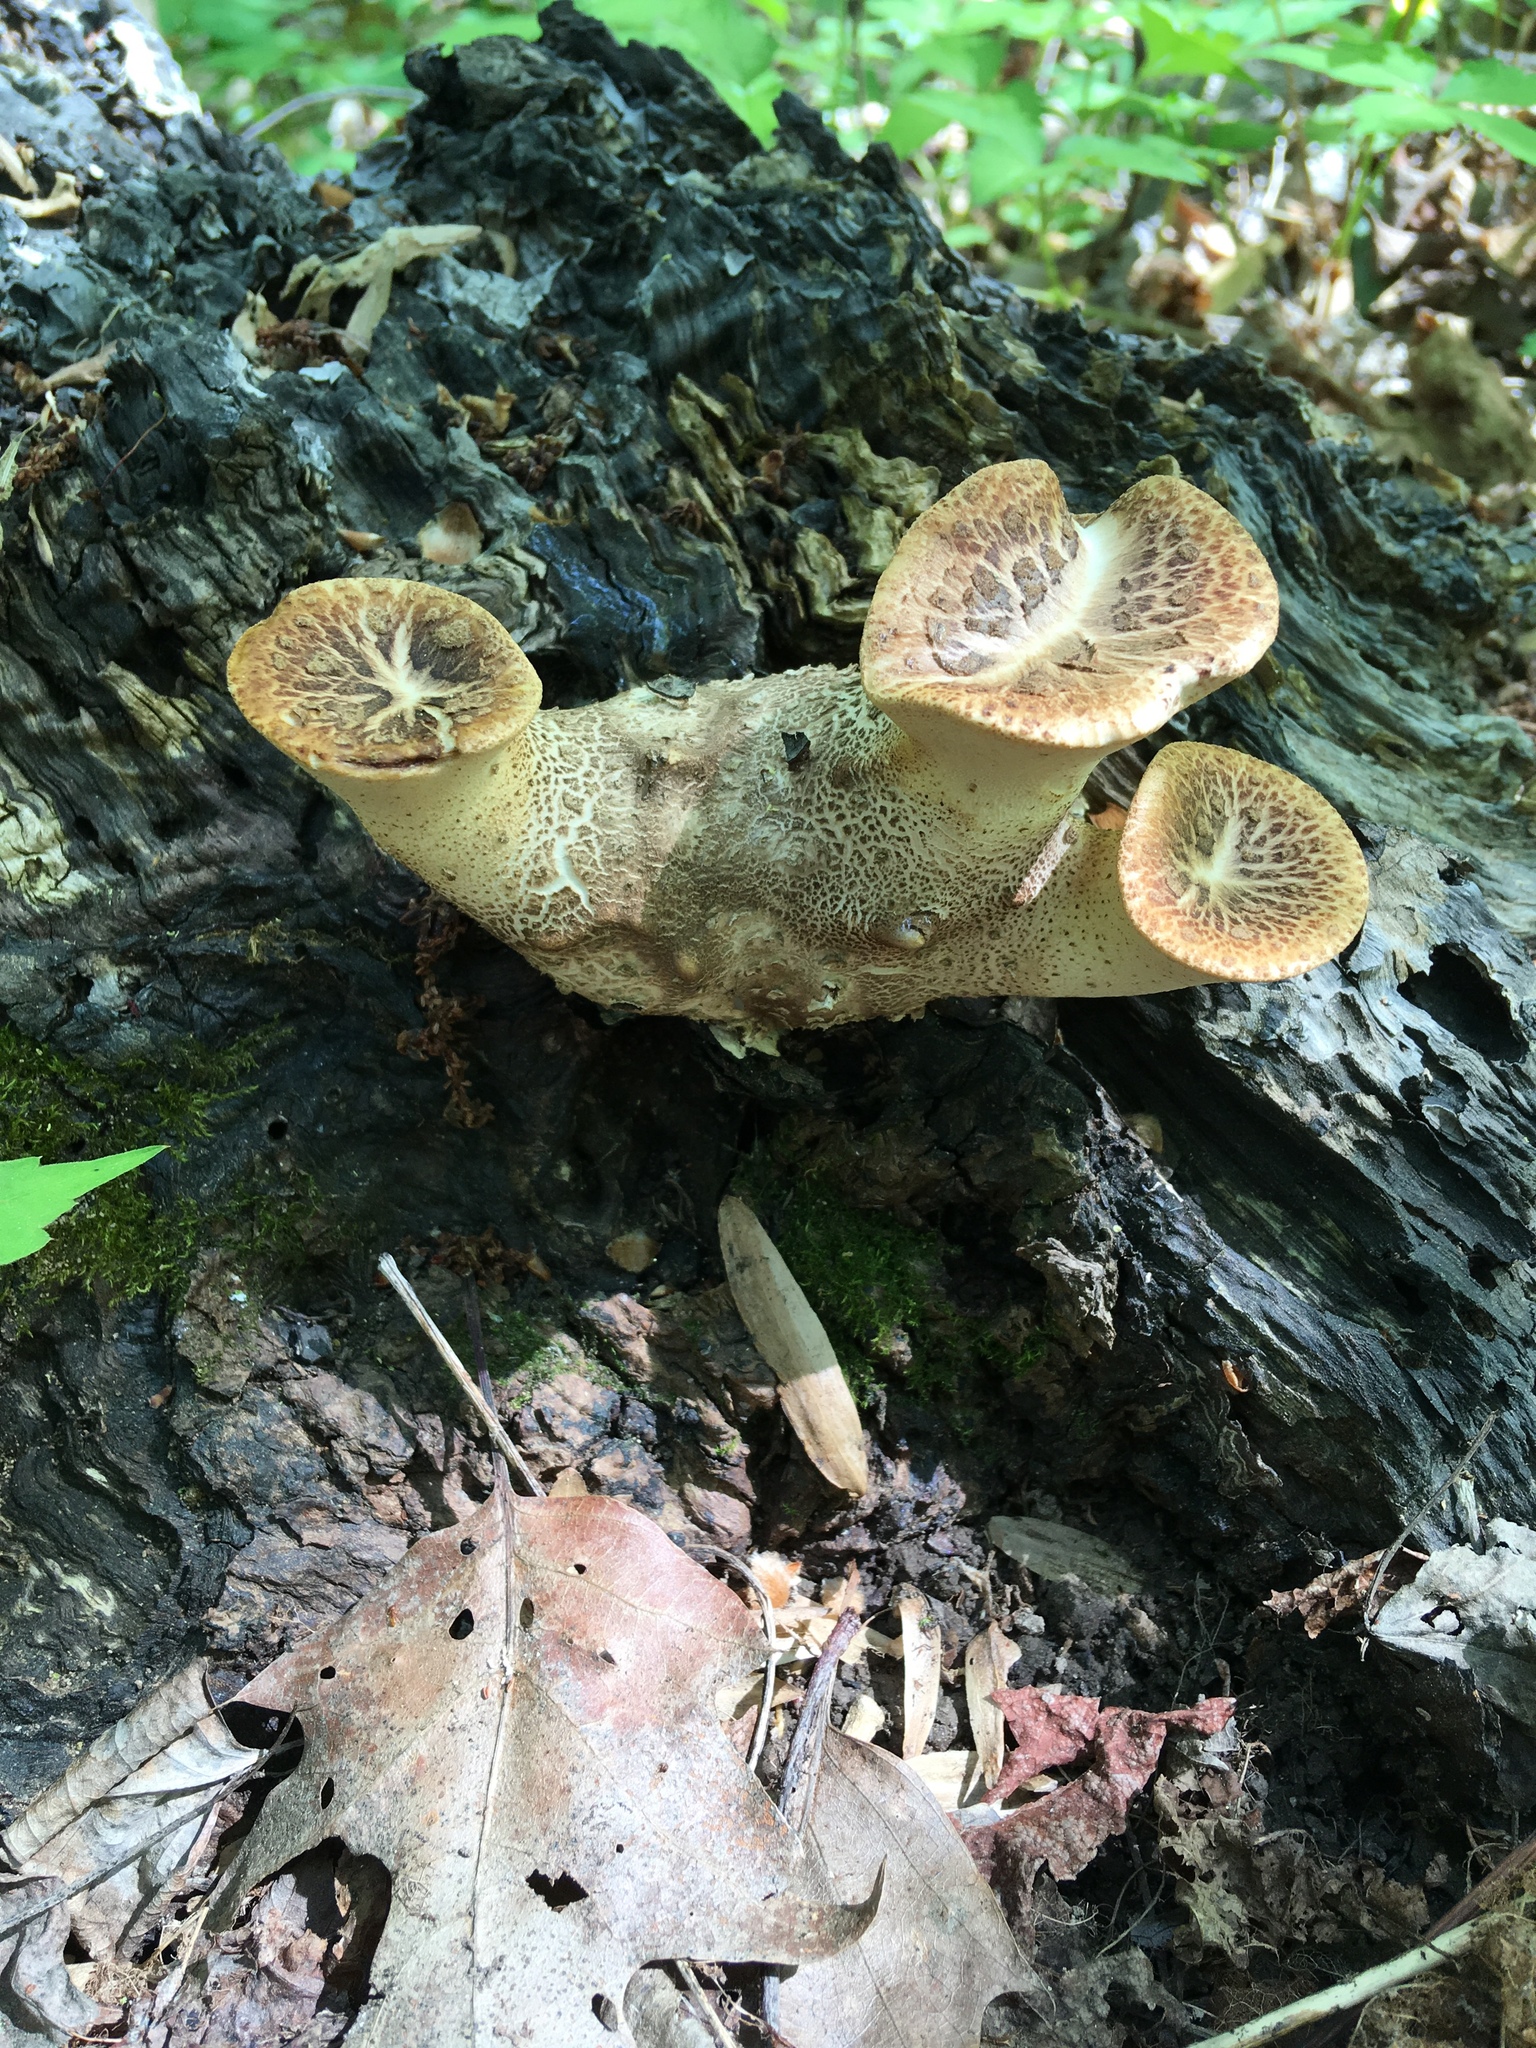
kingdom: Fungi
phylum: Basidiomycota
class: Agaricomycetes
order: Polyporales
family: Polyporaceae
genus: Cerioporus
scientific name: Cerioporus squamosus
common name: Dryad's saddle
